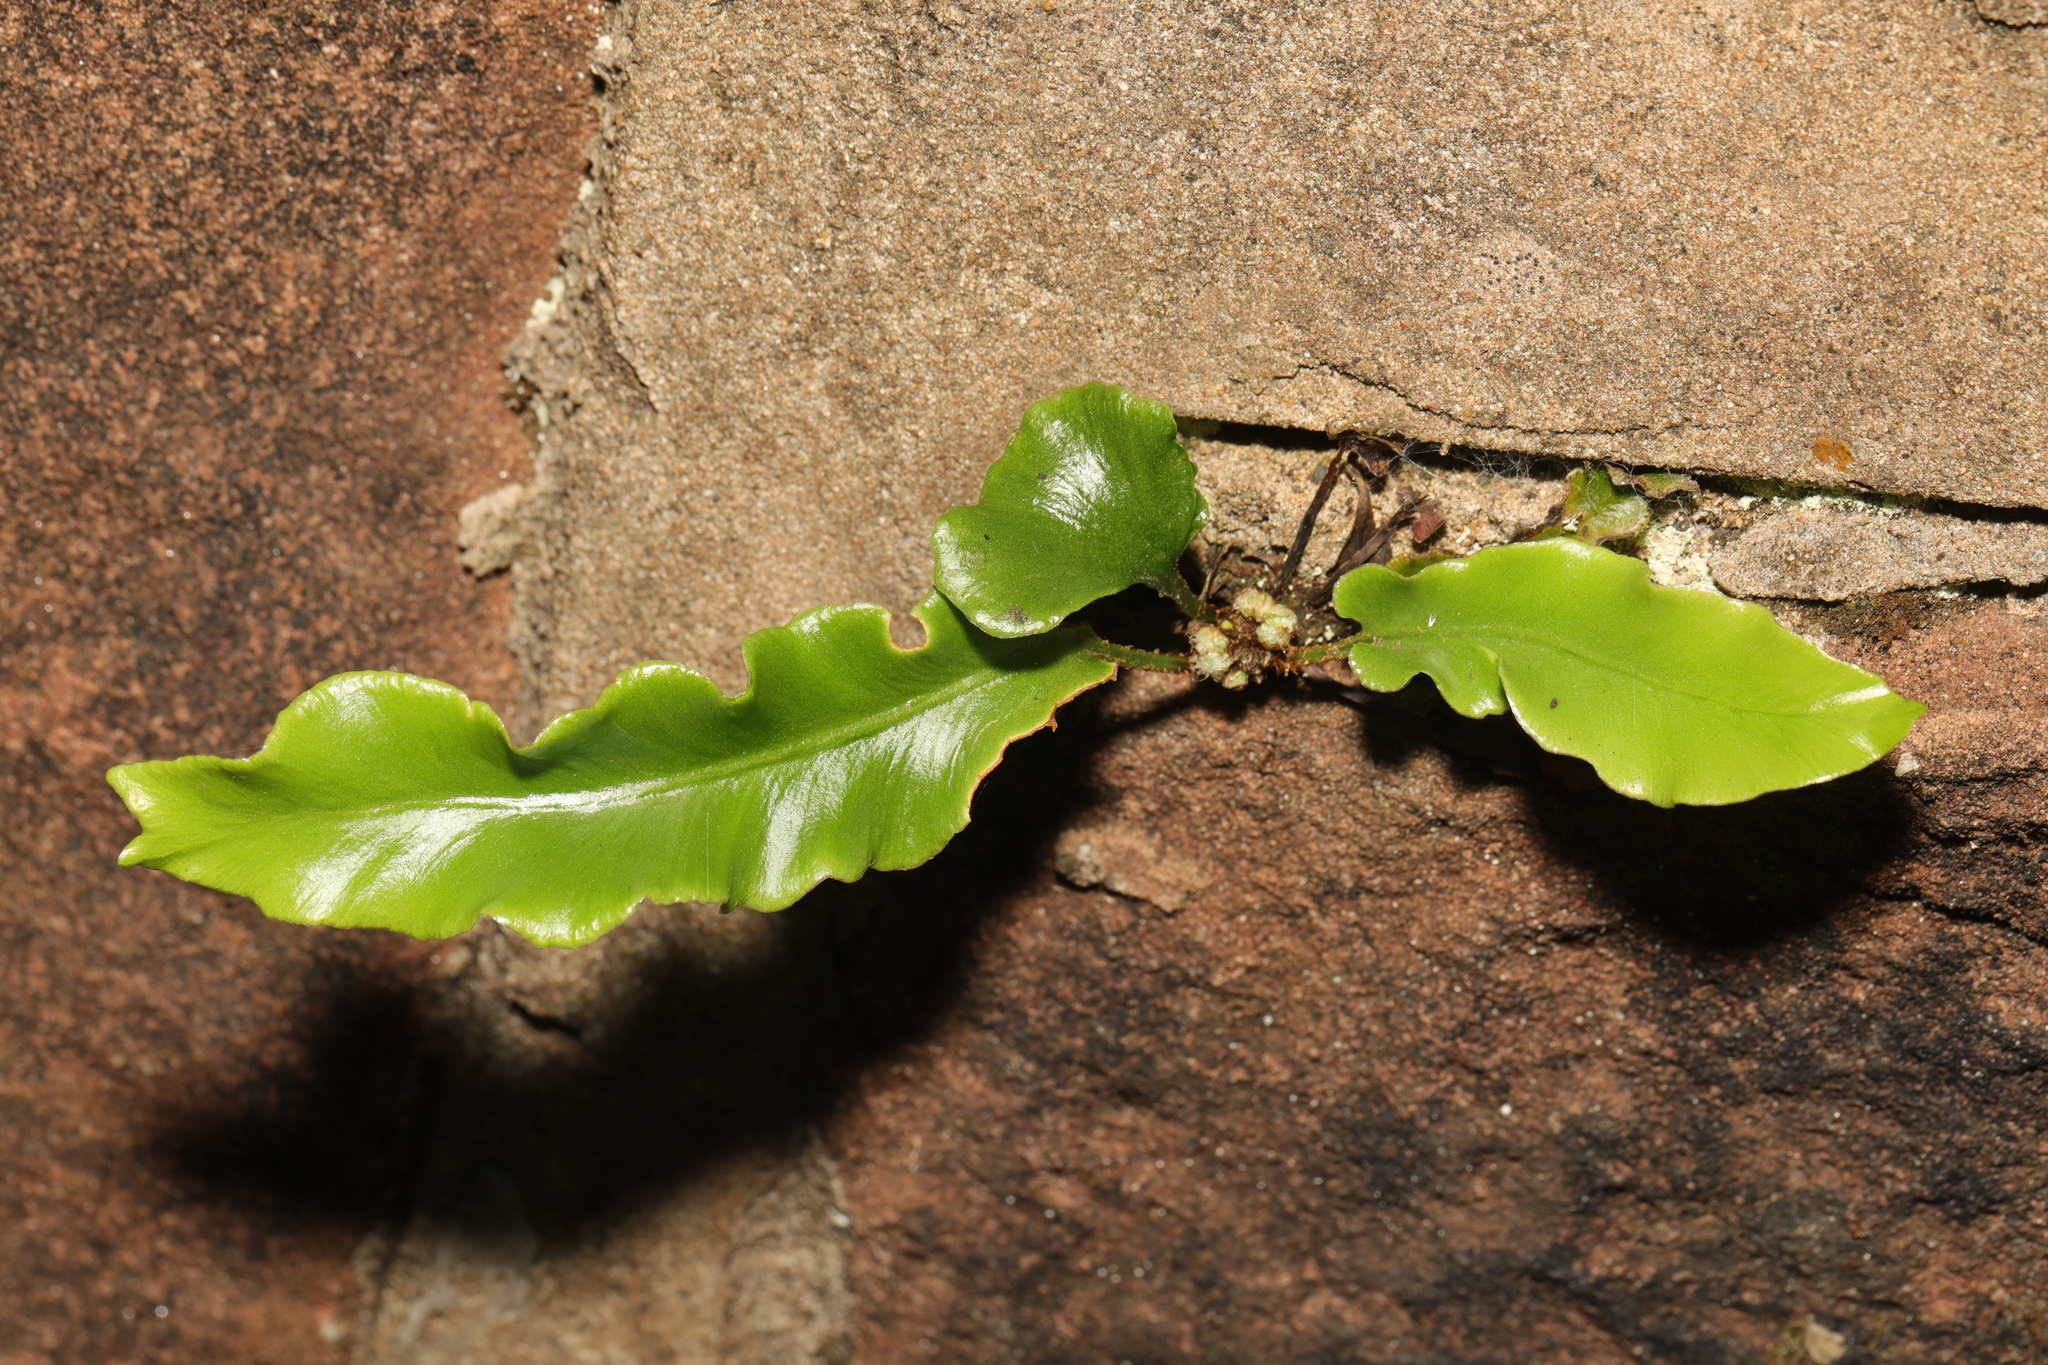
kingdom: Plantae
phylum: Tracheophyta
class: Polypodiopsida
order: Polypodiales
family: Aspleniaceae
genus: Asplenium
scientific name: Asplenium scolopendrium
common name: Hart's-tongue fern
